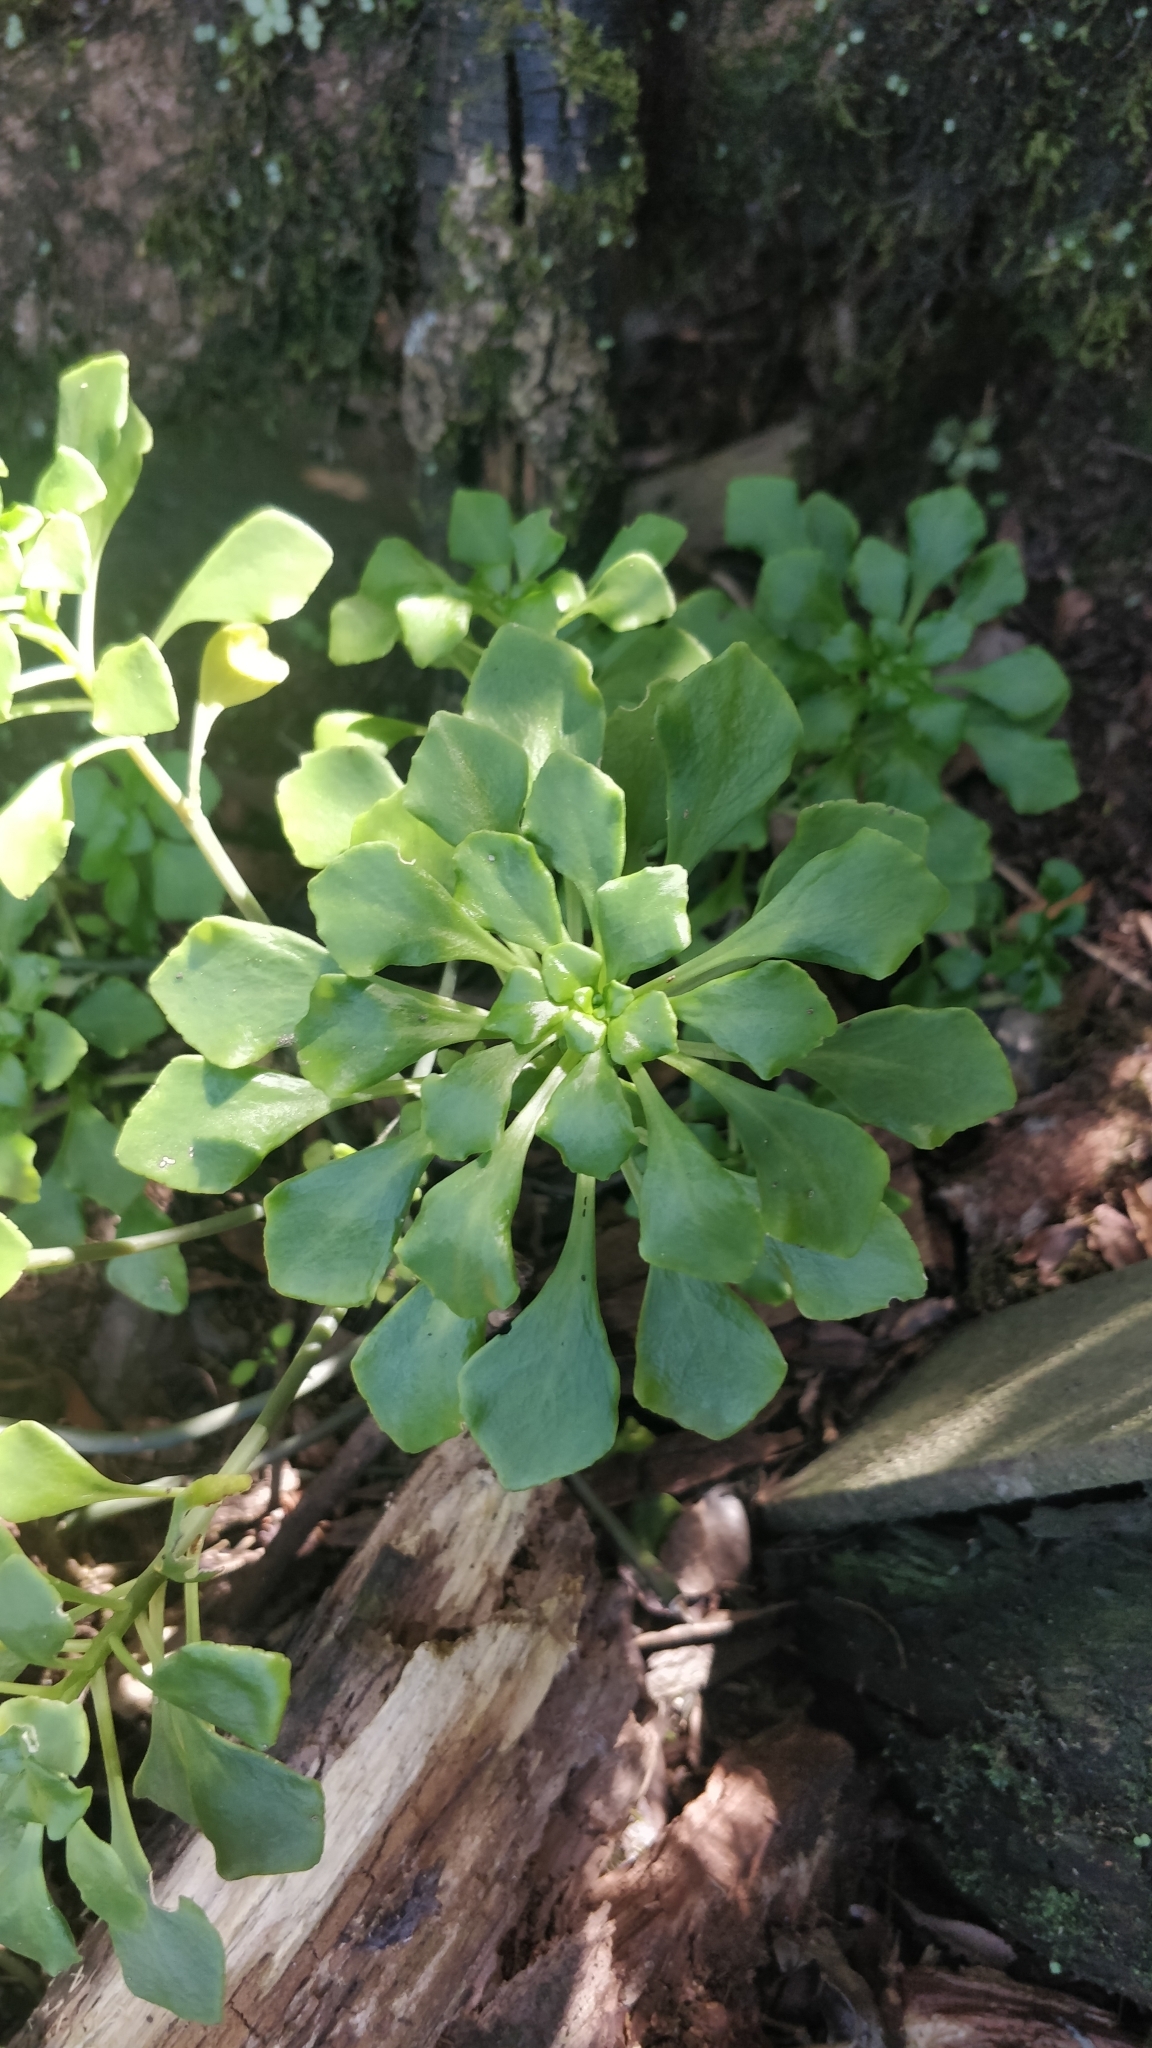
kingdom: Plantae
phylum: Tracheophyta
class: Magnoliopsida
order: Saxifragales
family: Crassulaceae
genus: Aichryson
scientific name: Aichryson pachycaulon
